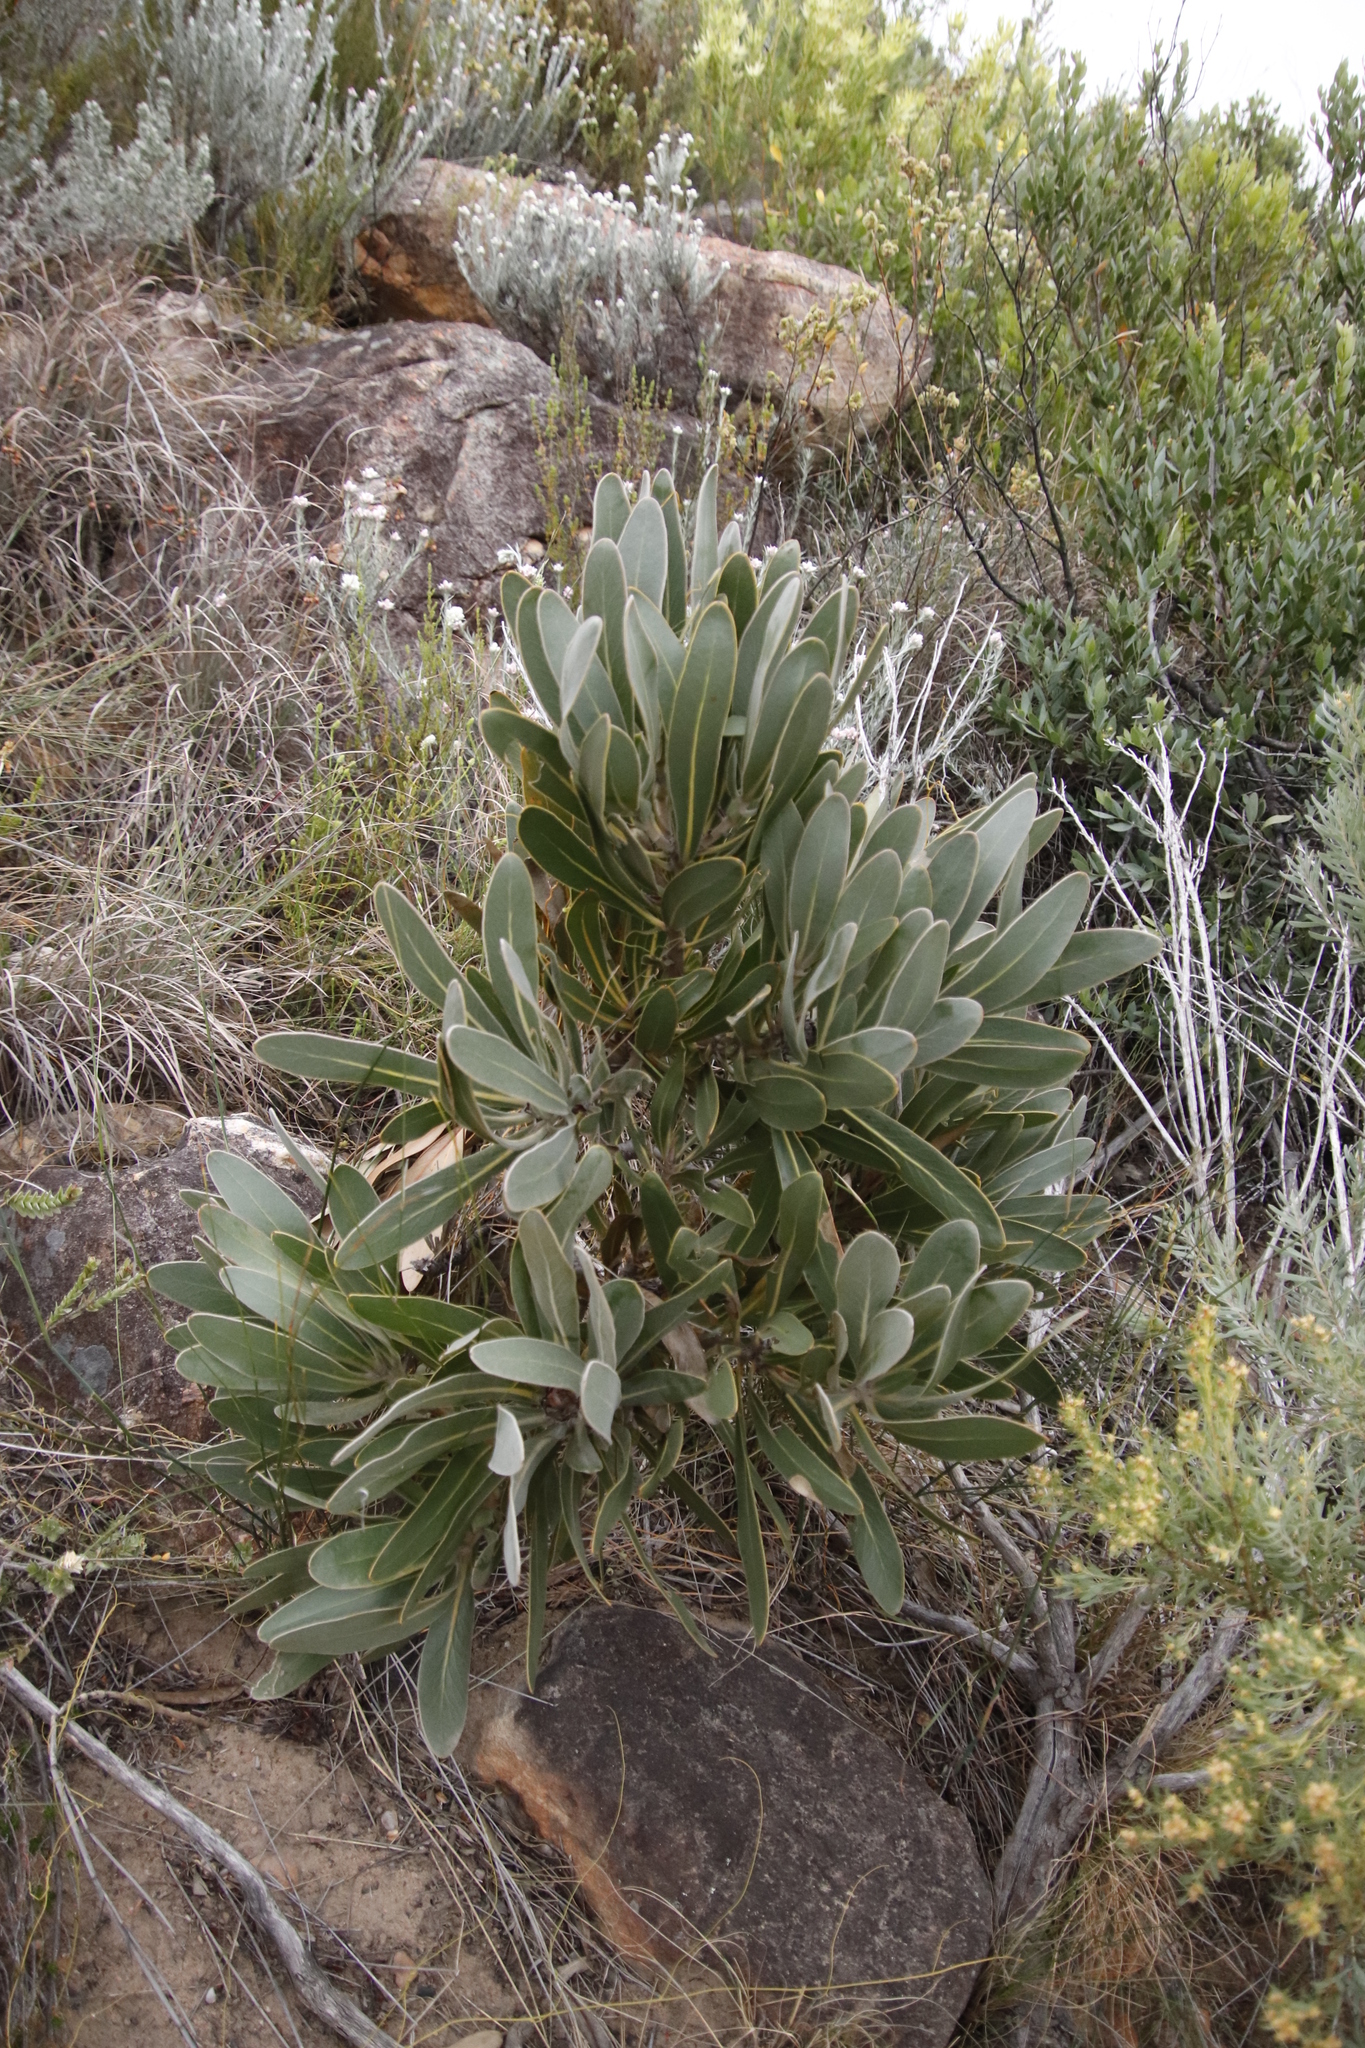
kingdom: Plantae
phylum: Tracheophyta
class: Magnoliopsida
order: Proteales
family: Proteaceae
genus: Protea
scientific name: Protea lorifolia
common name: Strap-leaved protea
